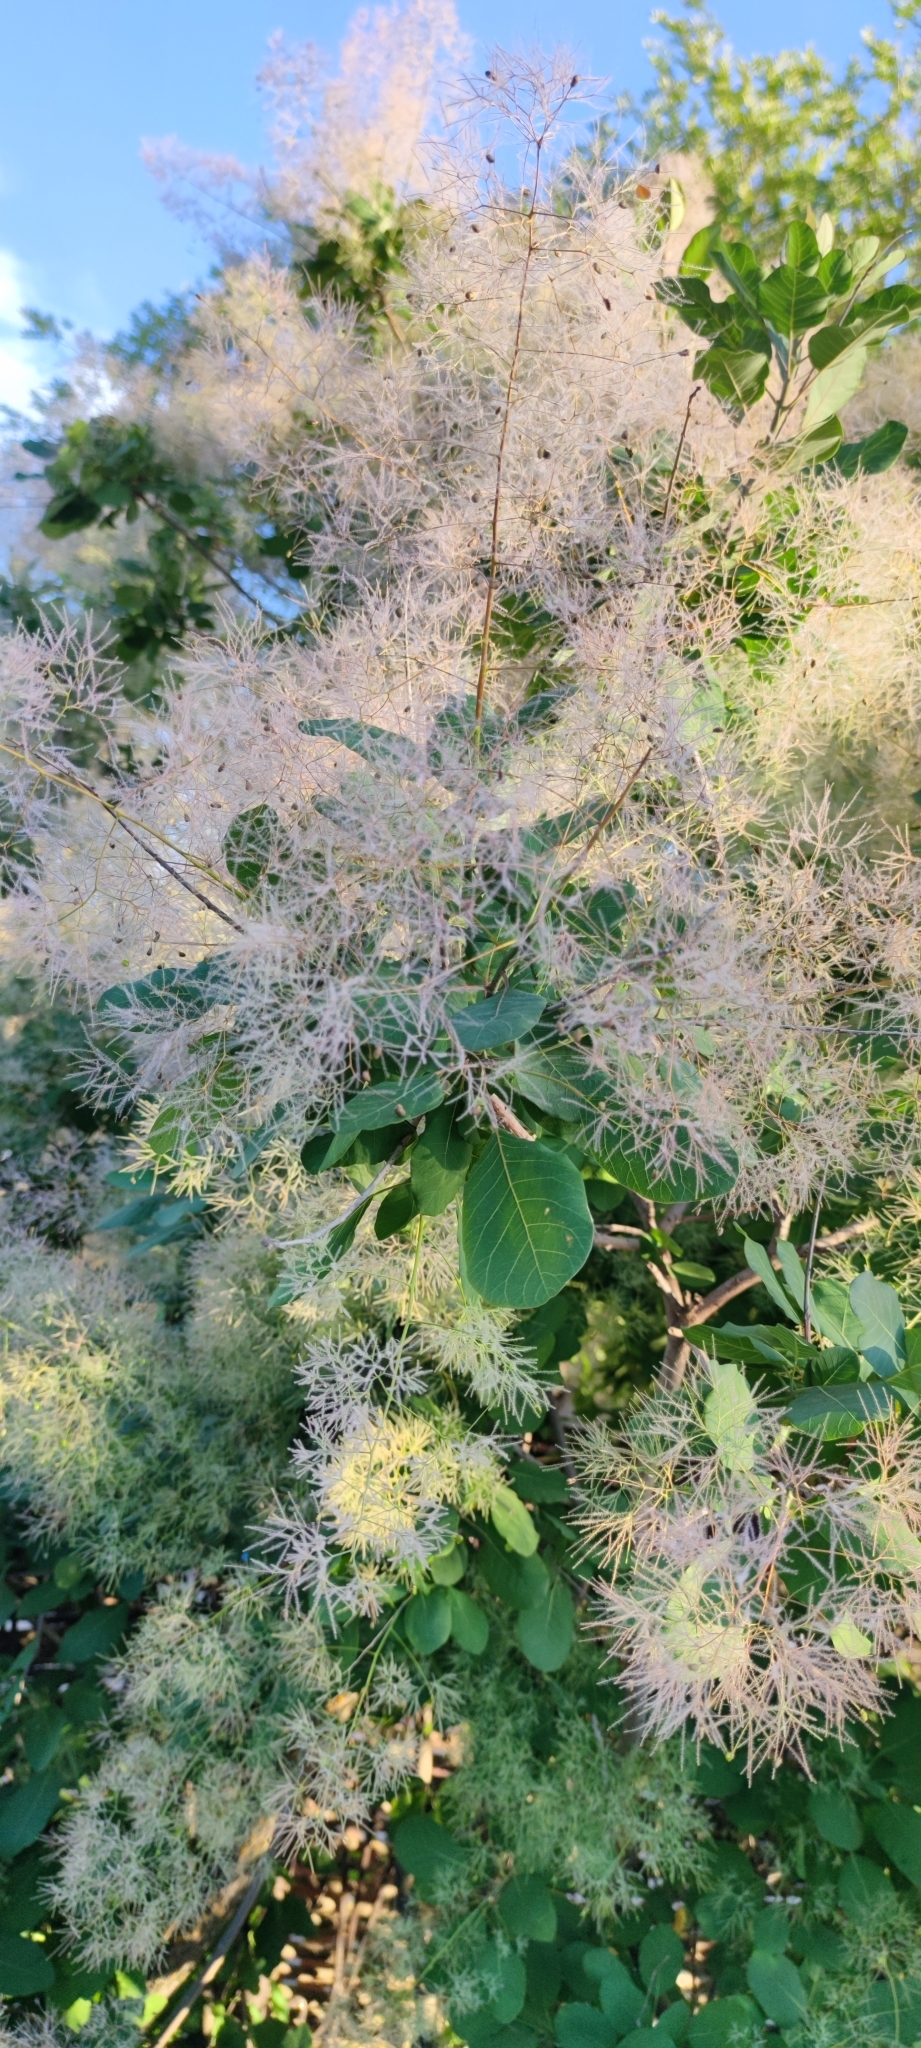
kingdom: Plantae
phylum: Tracheophyta
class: Magnoliopsida
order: Sapindales
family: Anacardiaceae
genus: Cotinus
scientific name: Cotinus coggygria
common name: Smoke-tree
